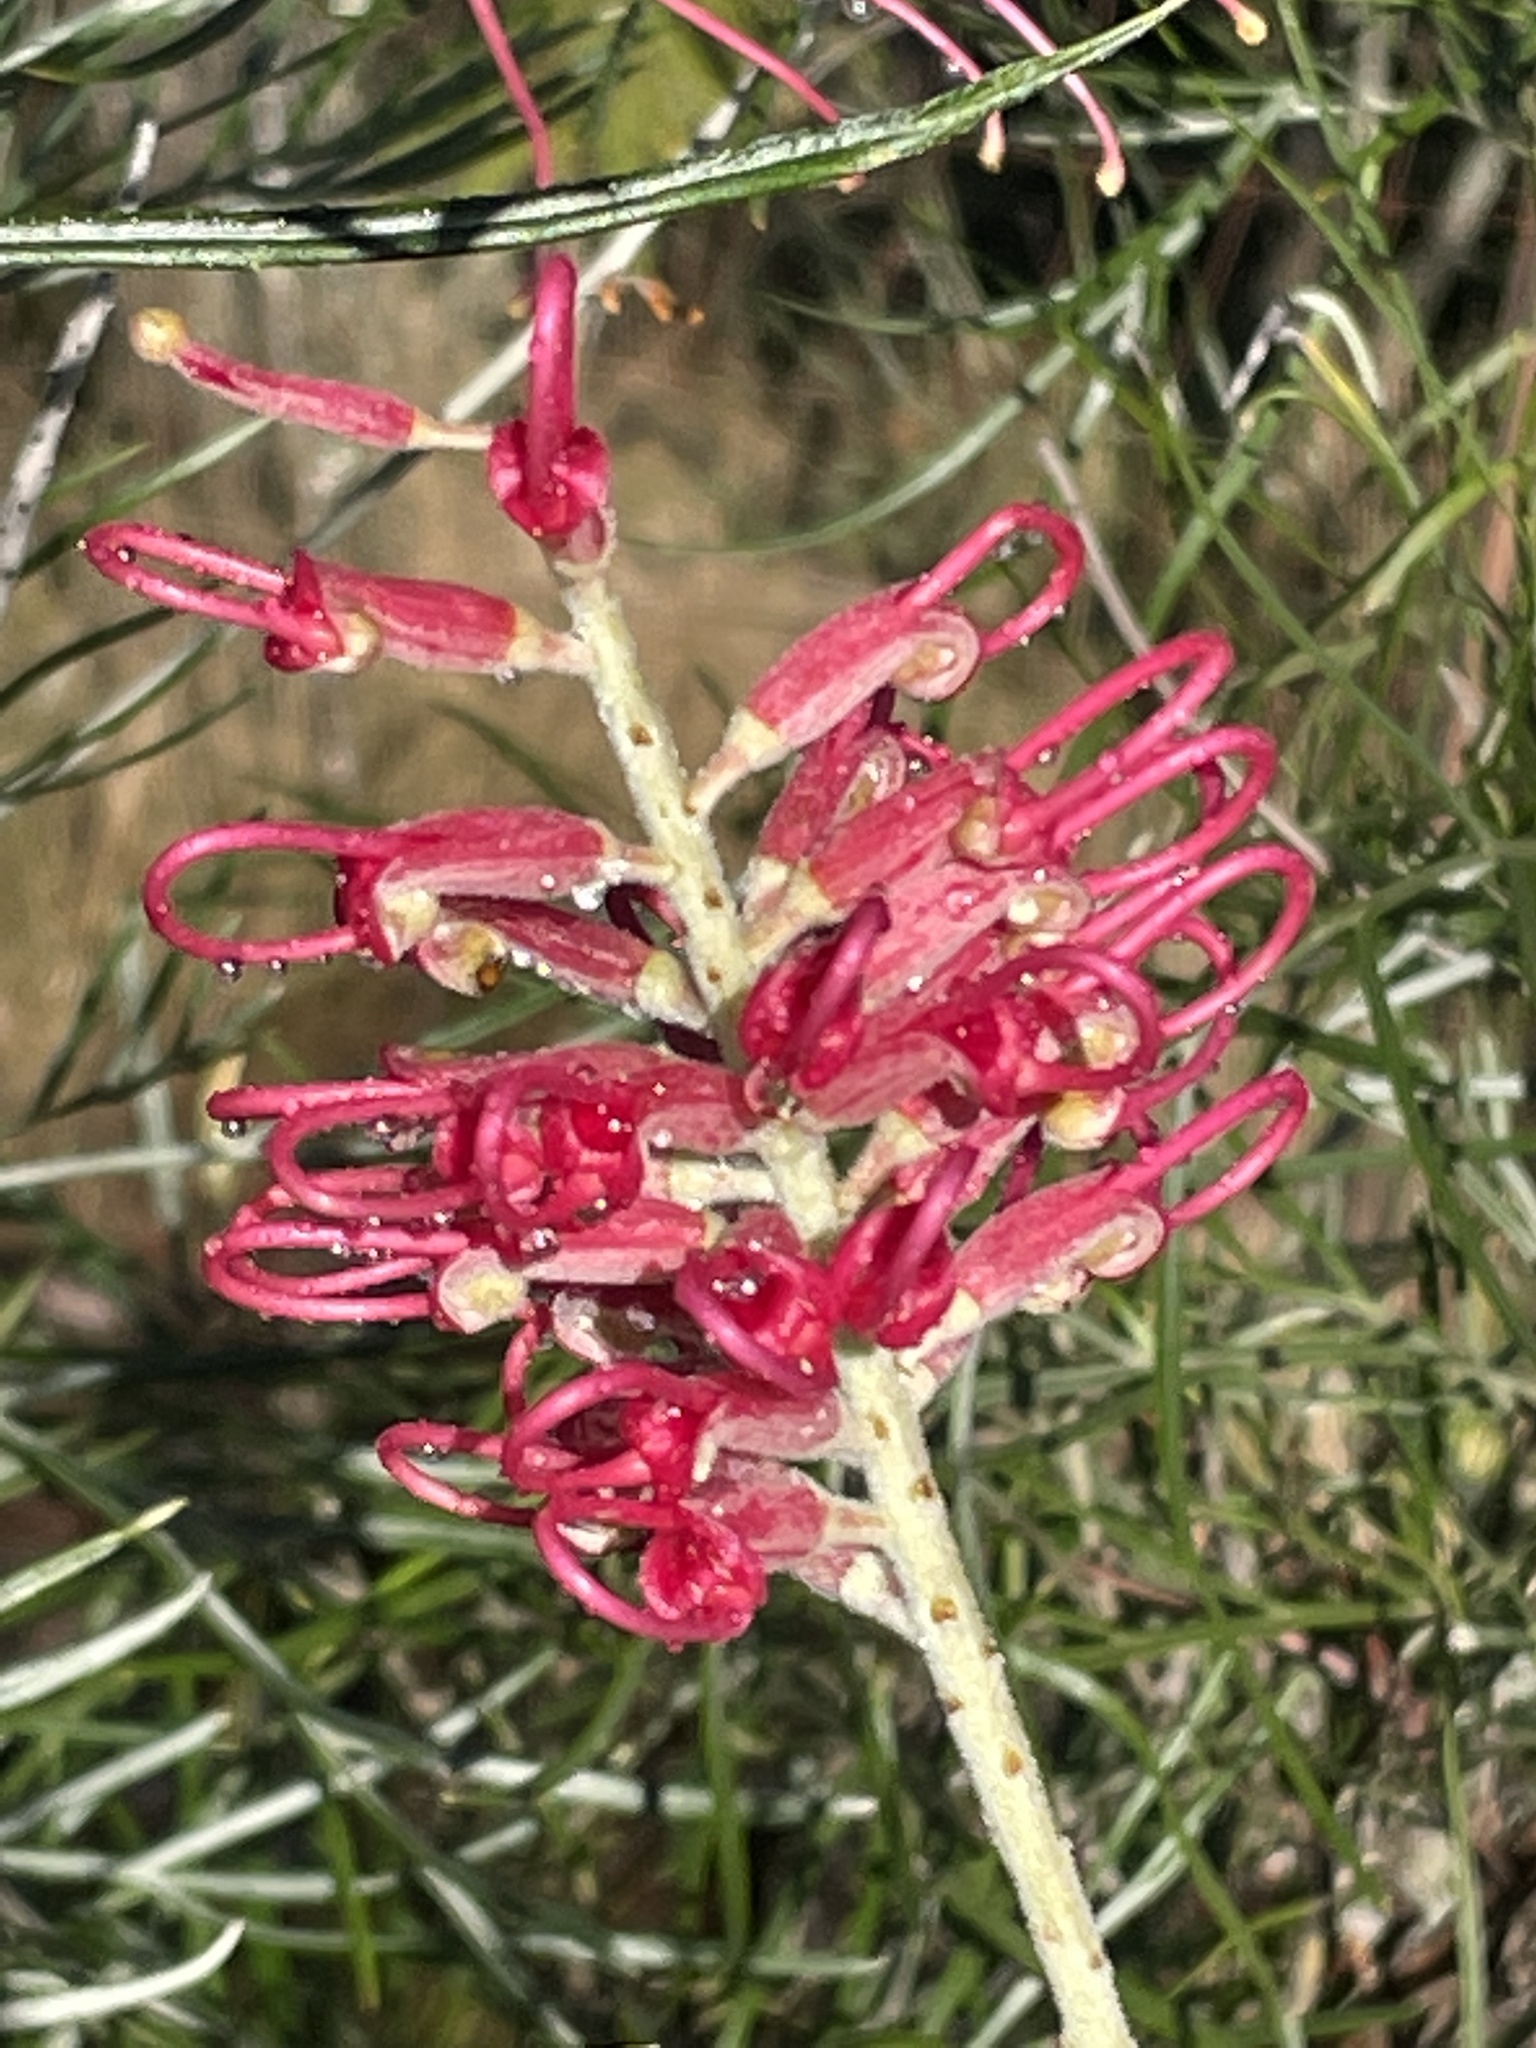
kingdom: Plantae
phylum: Tracheophyta
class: Magnoliopsida
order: Proteales
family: Proteaceae
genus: Grevillea
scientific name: Grevillea banksii
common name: Kahili flower
